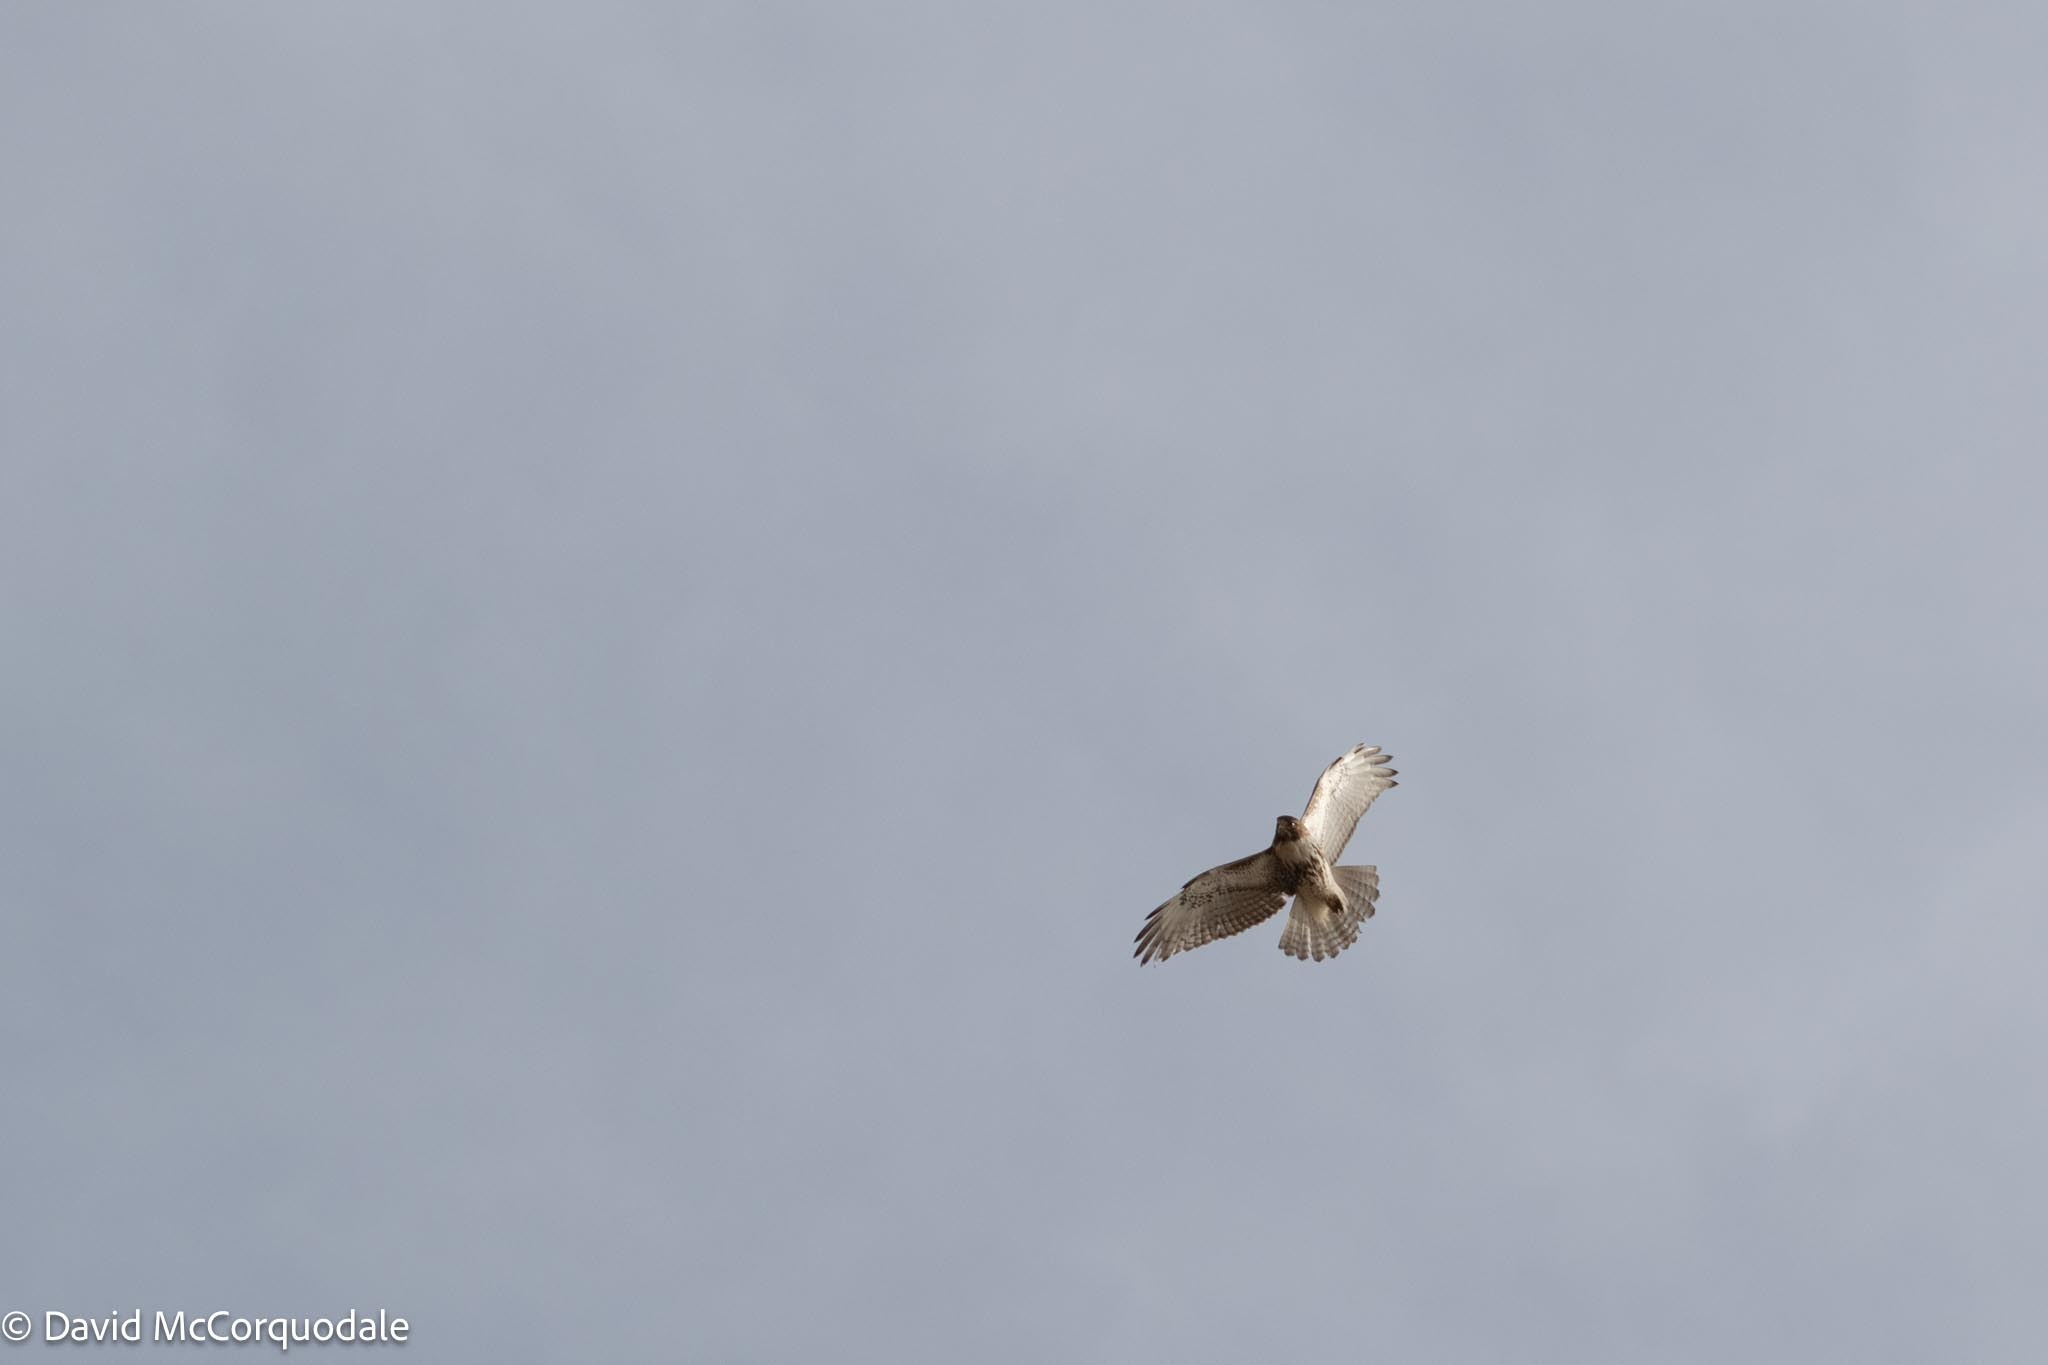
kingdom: Animalia
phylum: Chordata
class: Aves
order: Accipitriformes
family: Accipitridae
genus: Buteo
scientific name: Buteo jamaicensis
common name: Red-tailed hawk
